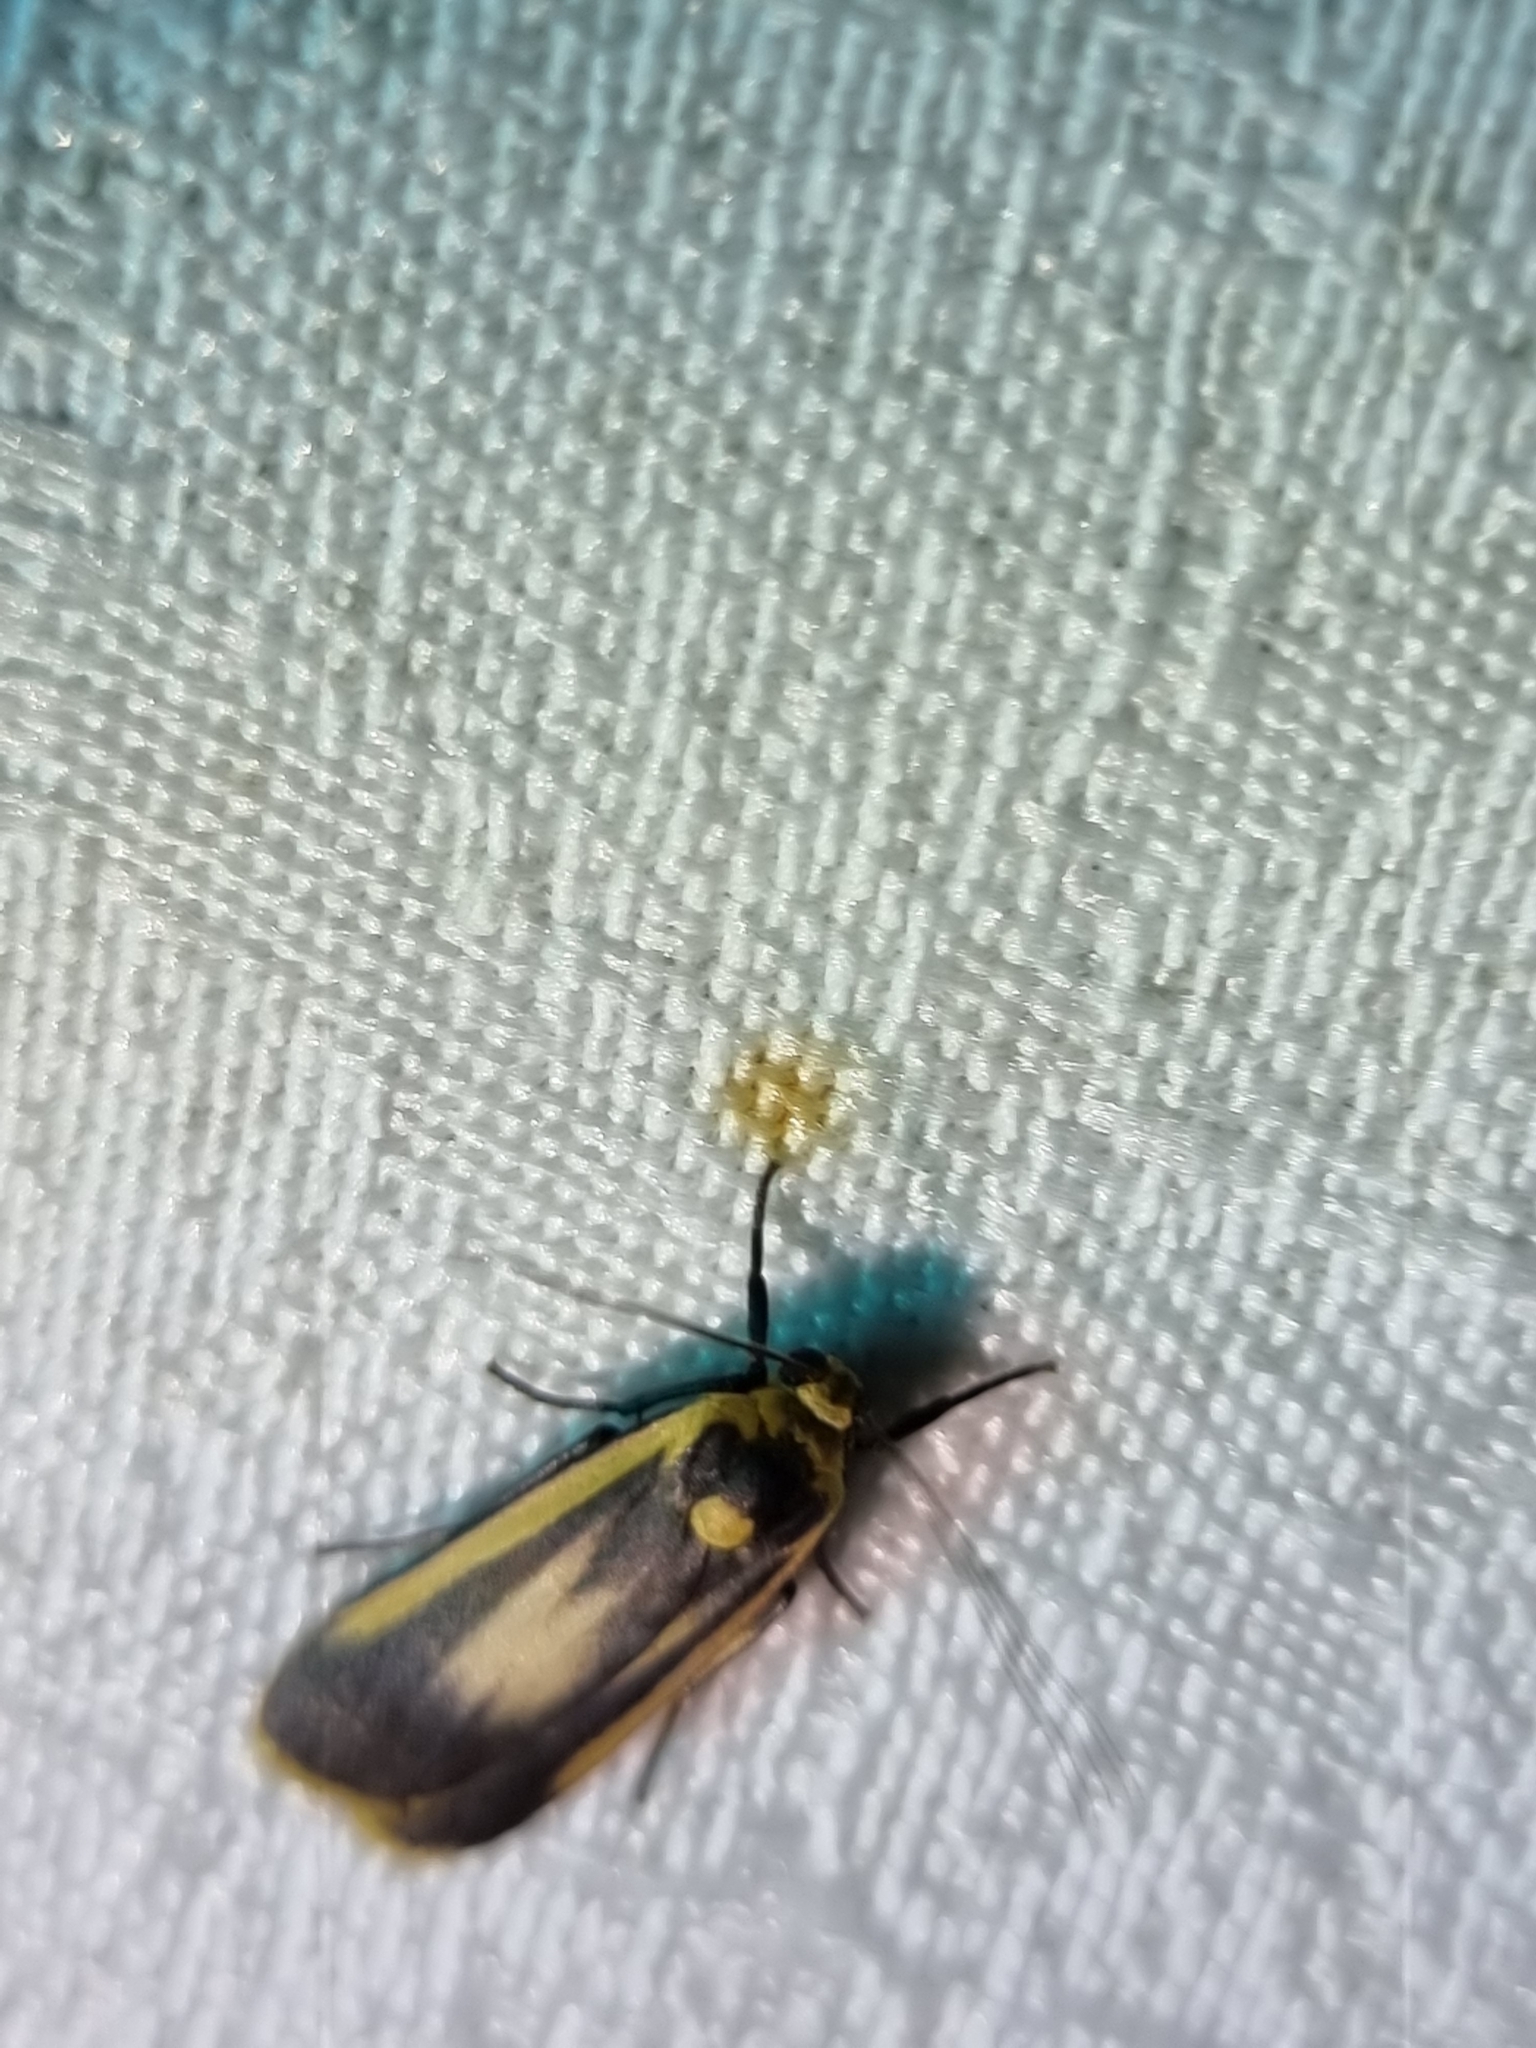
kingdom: Animalia
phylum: Arthropoda
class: Insecta
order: Lepidoptera
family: Erebidae
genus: Brunia
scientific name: Brunia replana
